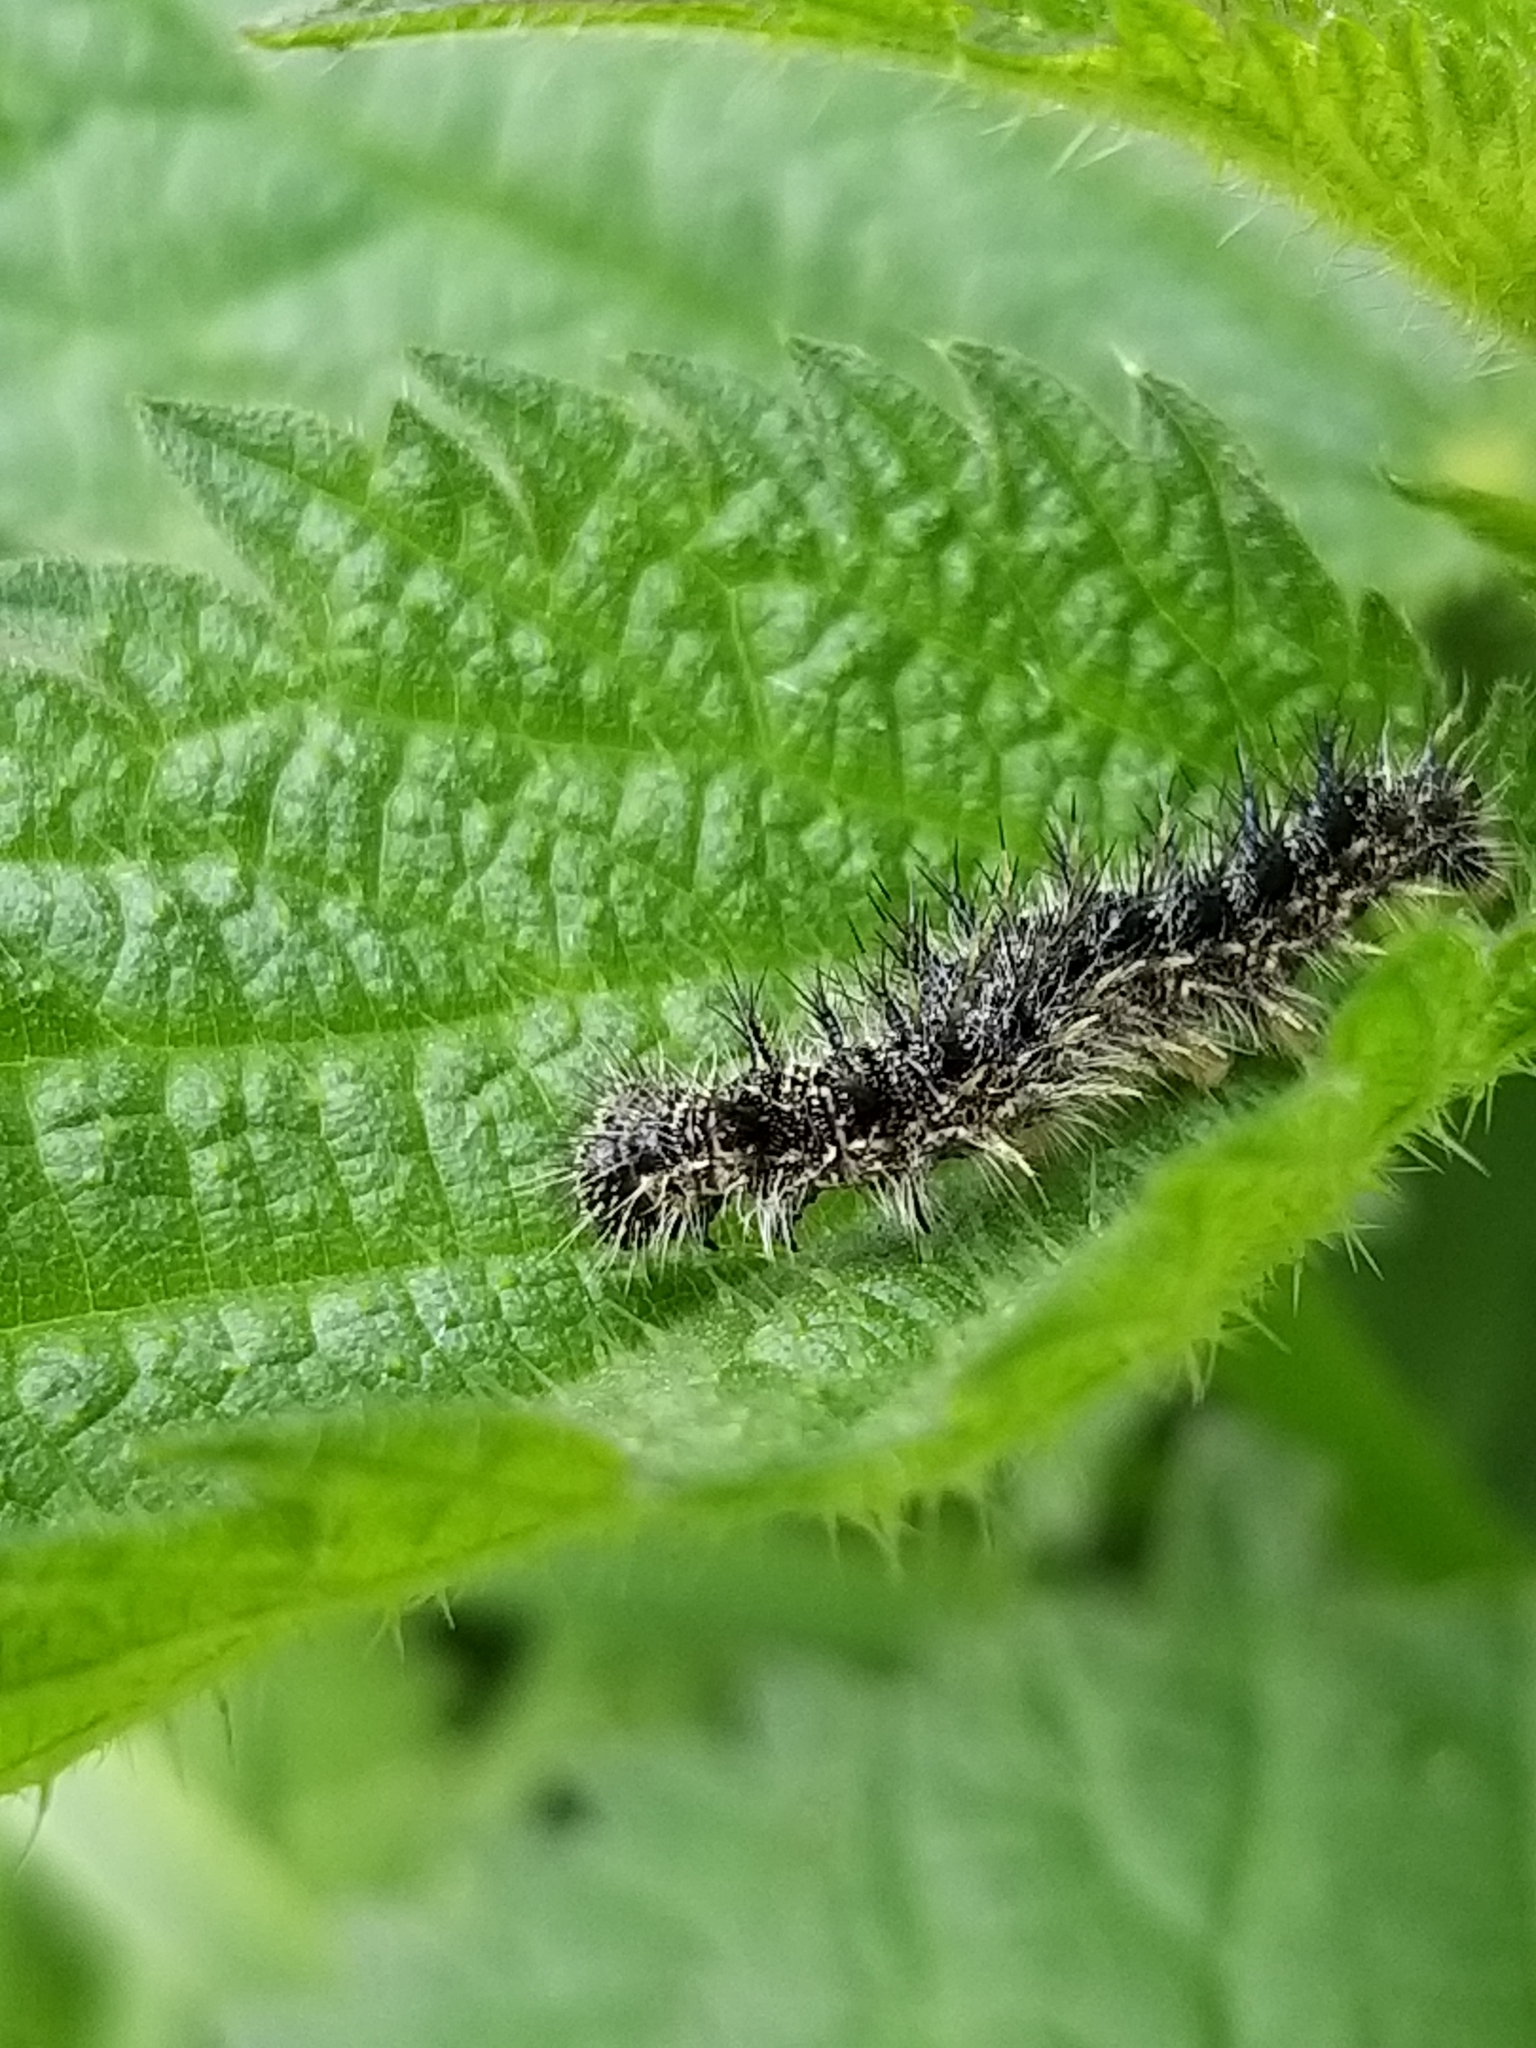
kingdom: Animalia
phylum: Arthropoda
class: Insecta
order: Lepidoptera
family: Nymphalidae
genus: Aglais
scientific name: Aglais urticae
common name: Small tortoiseshell
